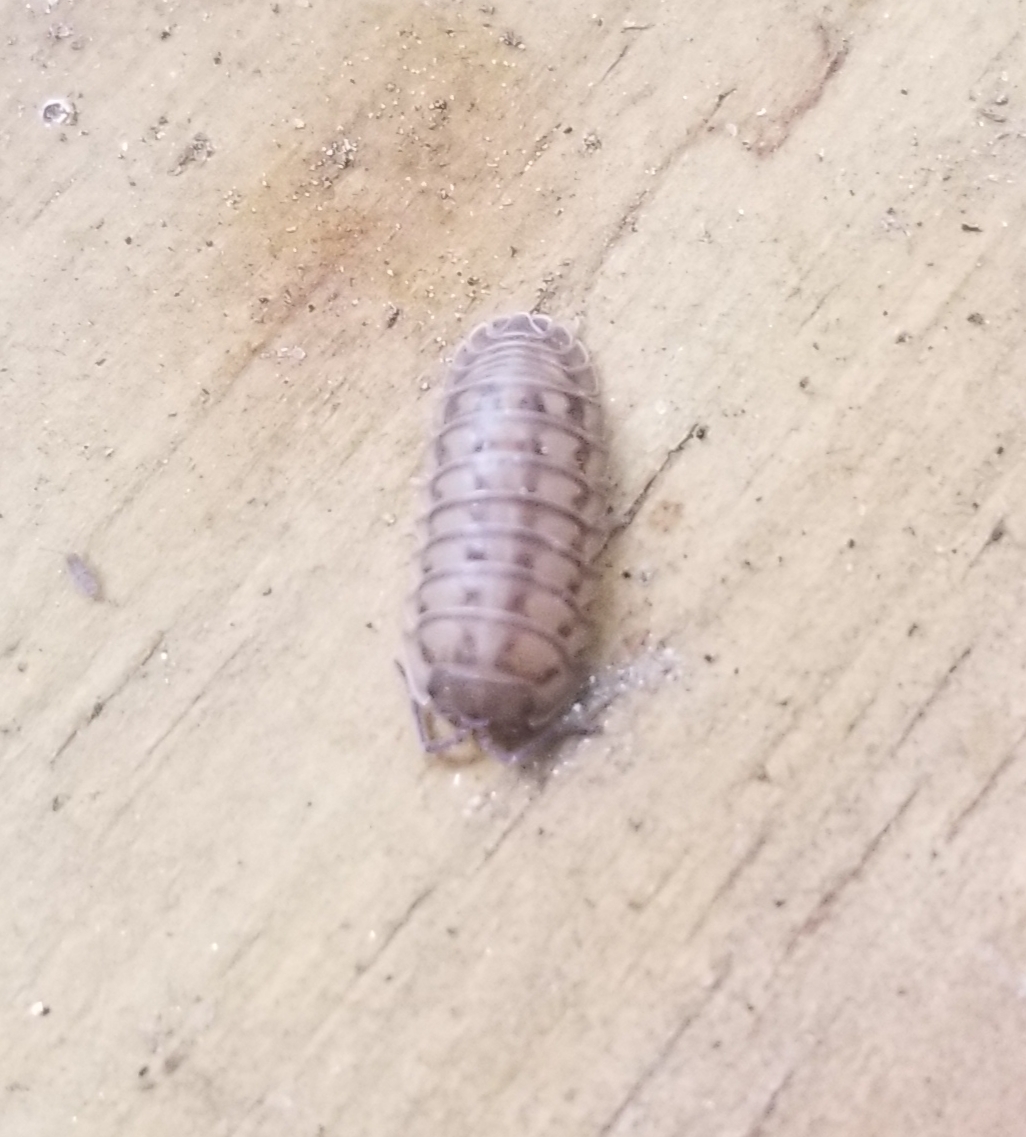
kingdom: Animalia
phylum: Arthropoda
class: Malacostraca
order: Isopoda
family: Armadillidiidae
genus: Armadillidium
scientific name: Armadillidium nasatum
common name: Isopod
